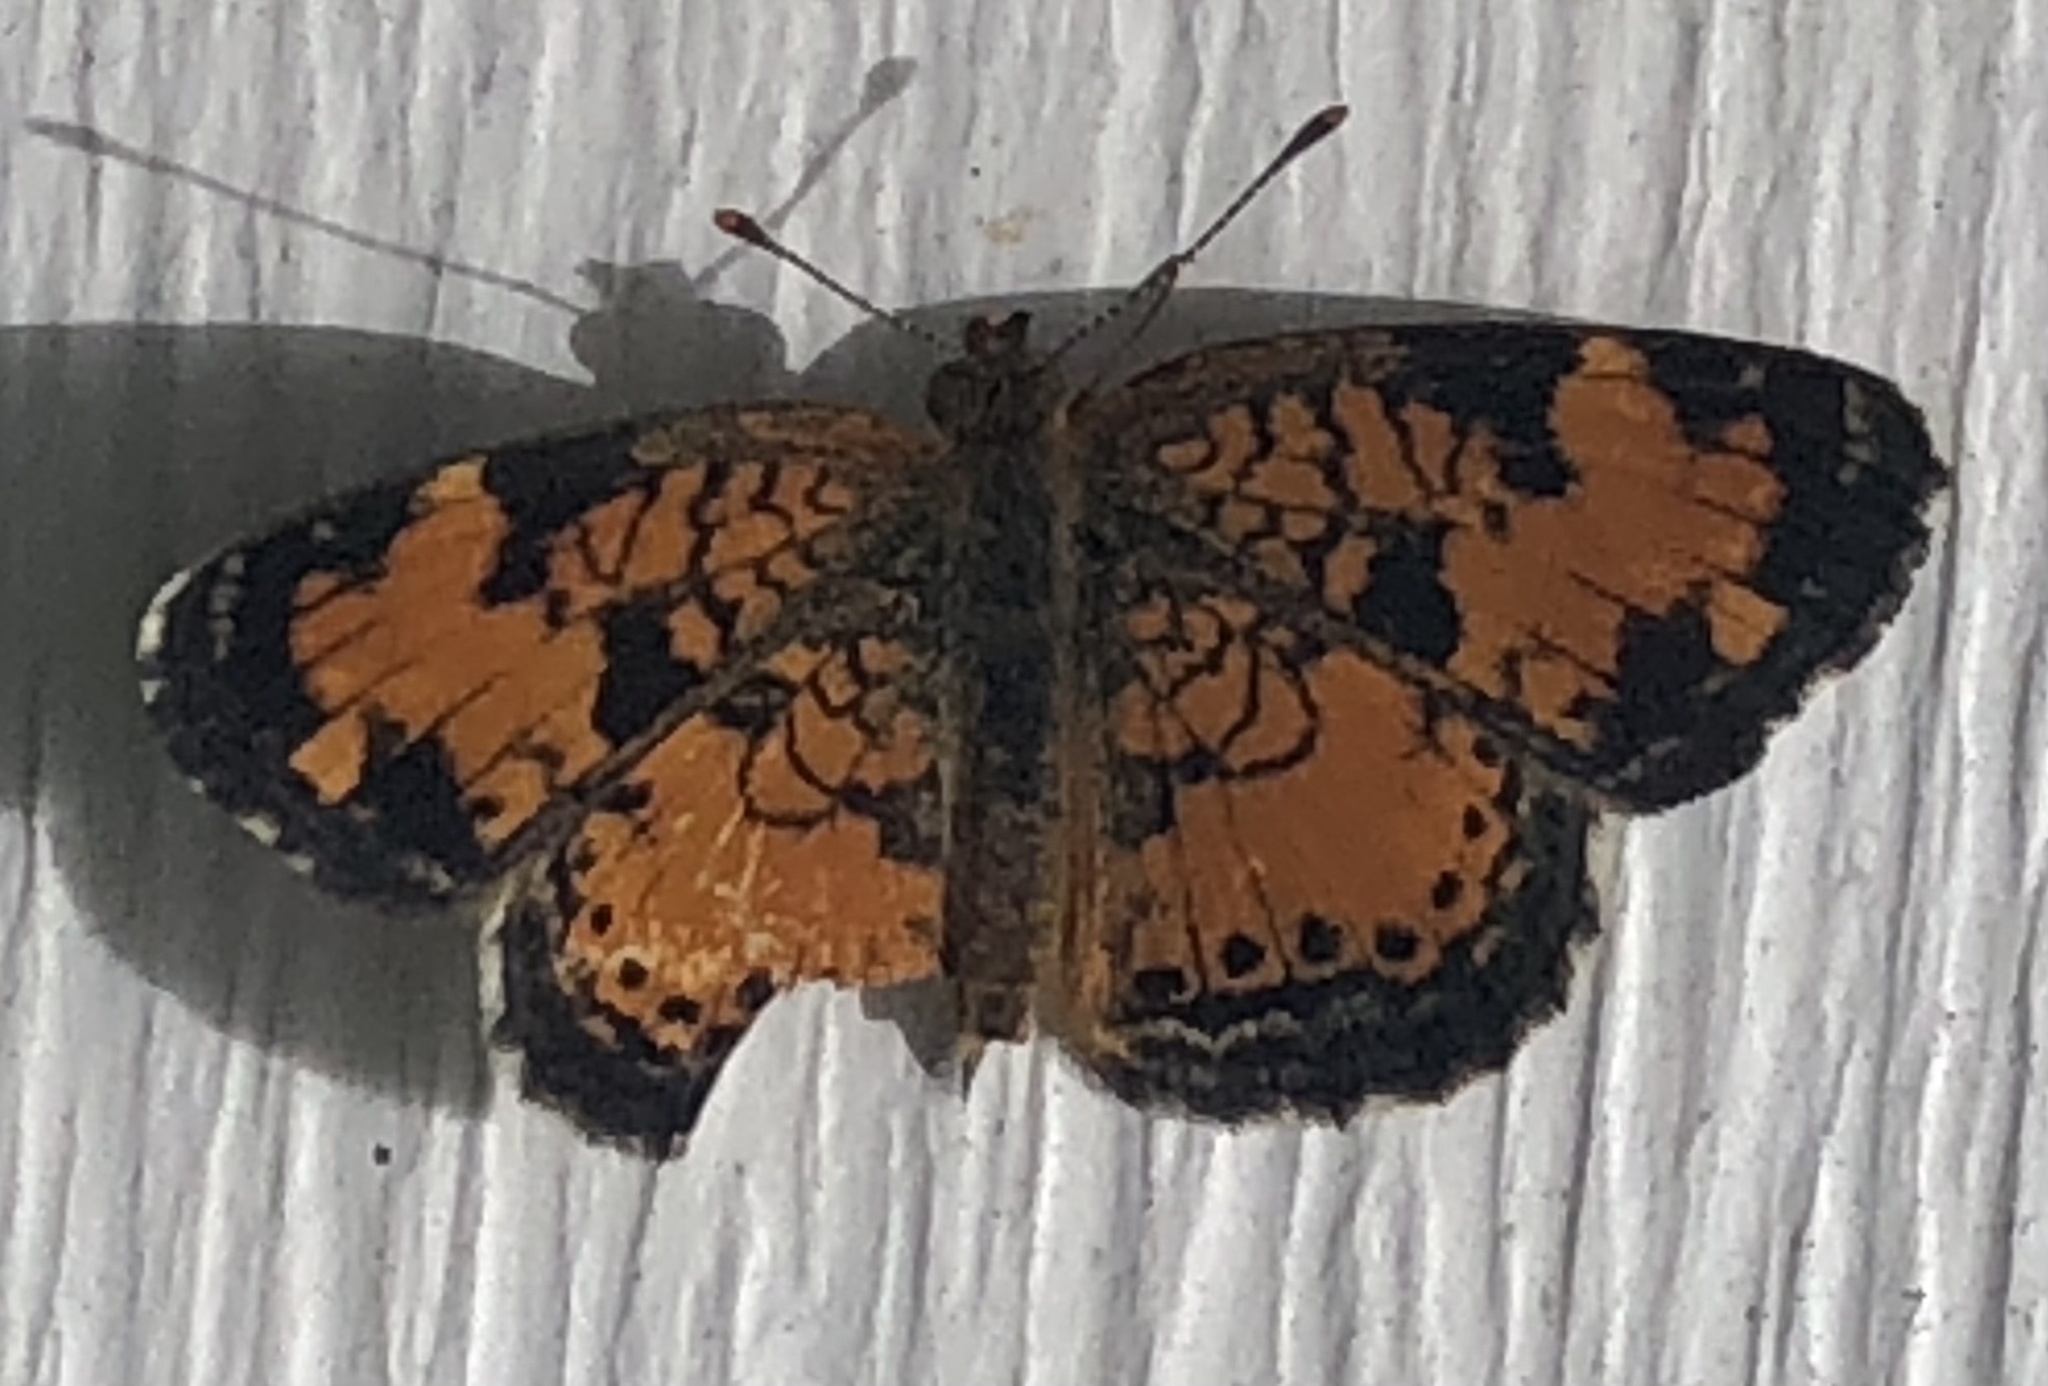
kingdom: Animalia
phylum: Arthropoda
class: Insecta
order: Lepidoptera
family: Nymphalidae
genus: Phyciodes
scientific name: Phyciodes tharos
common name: Pearl crescent
